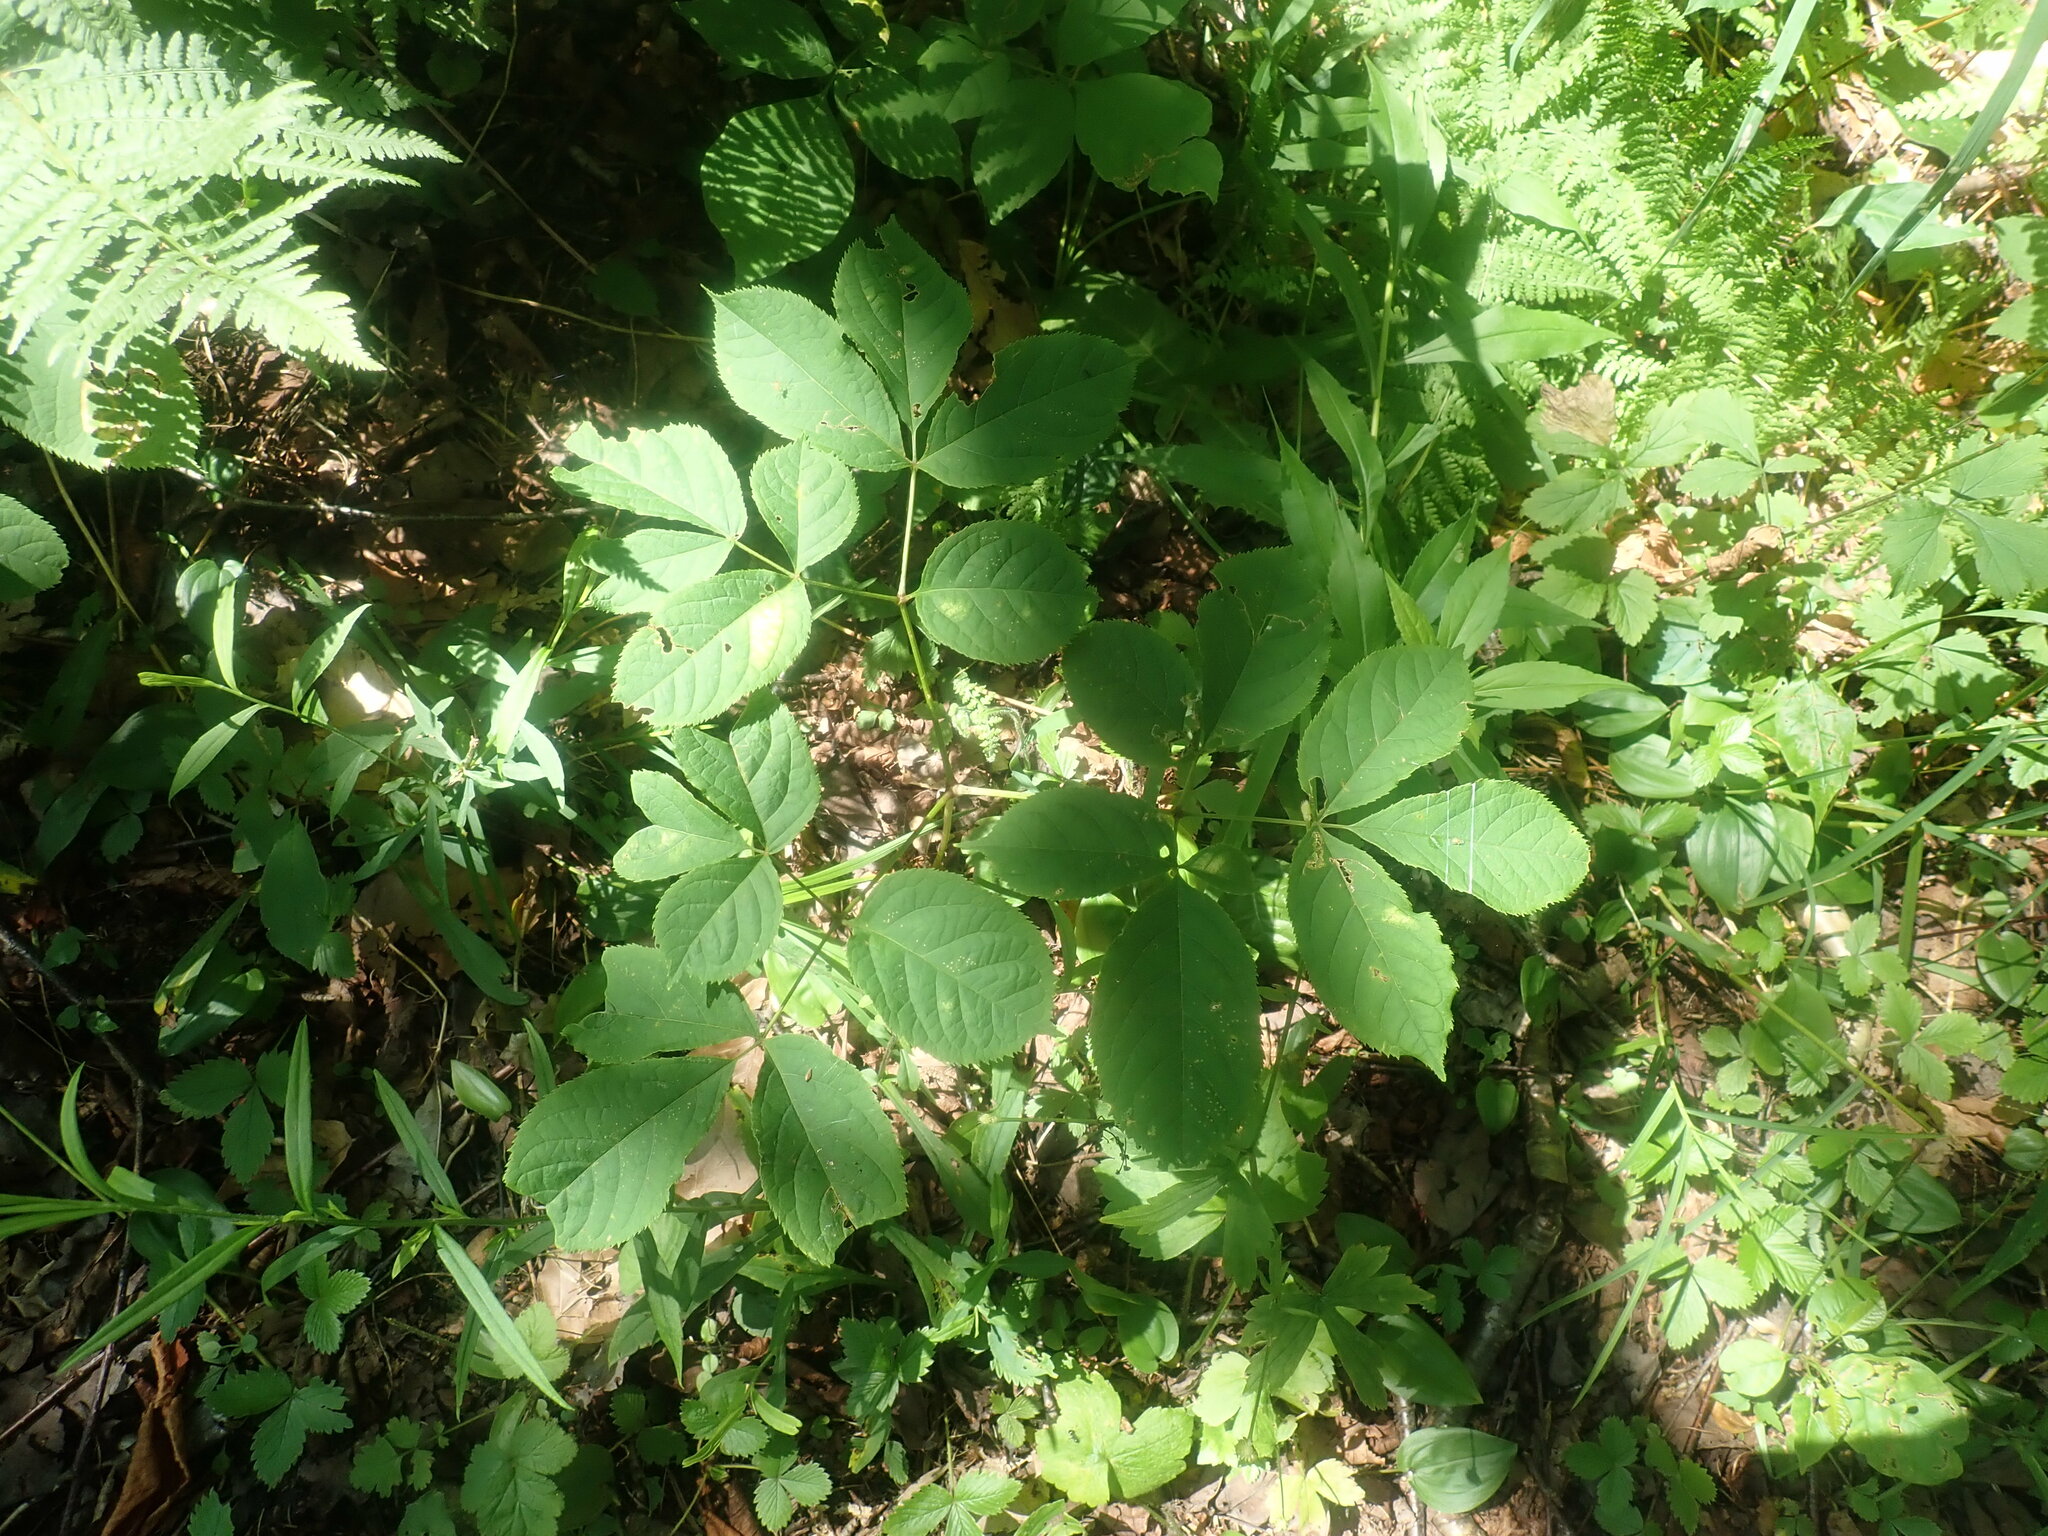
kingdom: Plantae
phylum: Tracheophyta
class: Magnoliopsida
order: Apiales
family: Araliaceae
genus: Aralia
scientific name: Aralia nudicaulis
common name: Wild sarsaparilla
